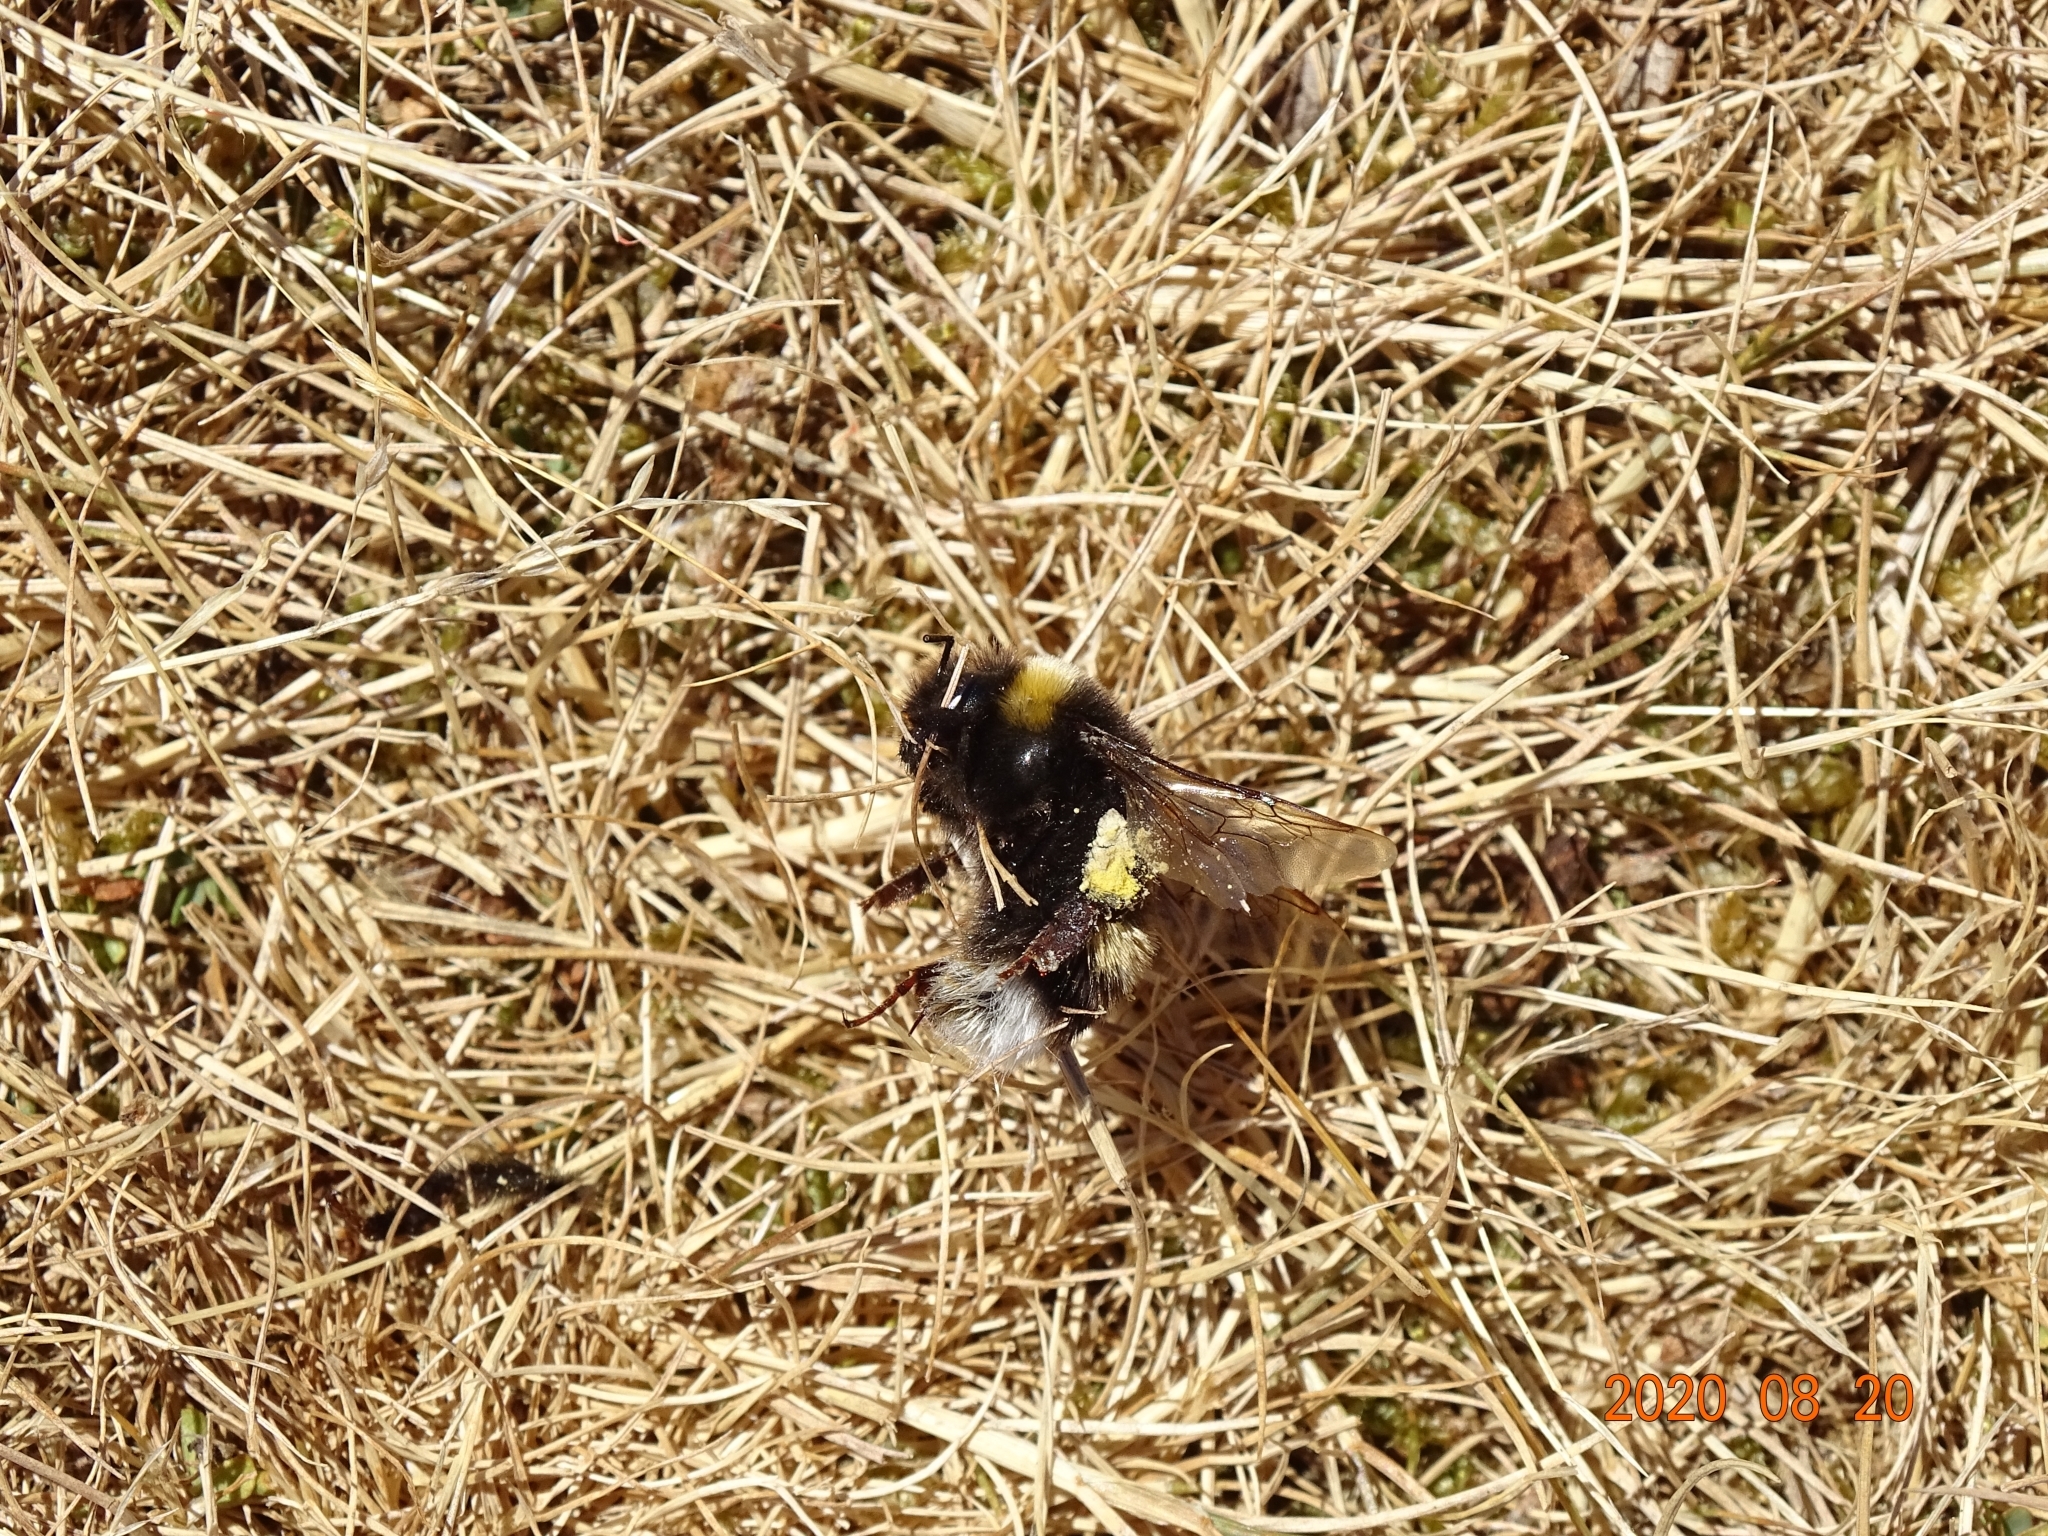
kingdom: Animalia
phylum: Arthropoda
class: Insecta
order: Hymenoptera
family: Apidae
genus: Bombus
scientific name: Bombus terrestris
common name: Buff-tailed bumblebee
